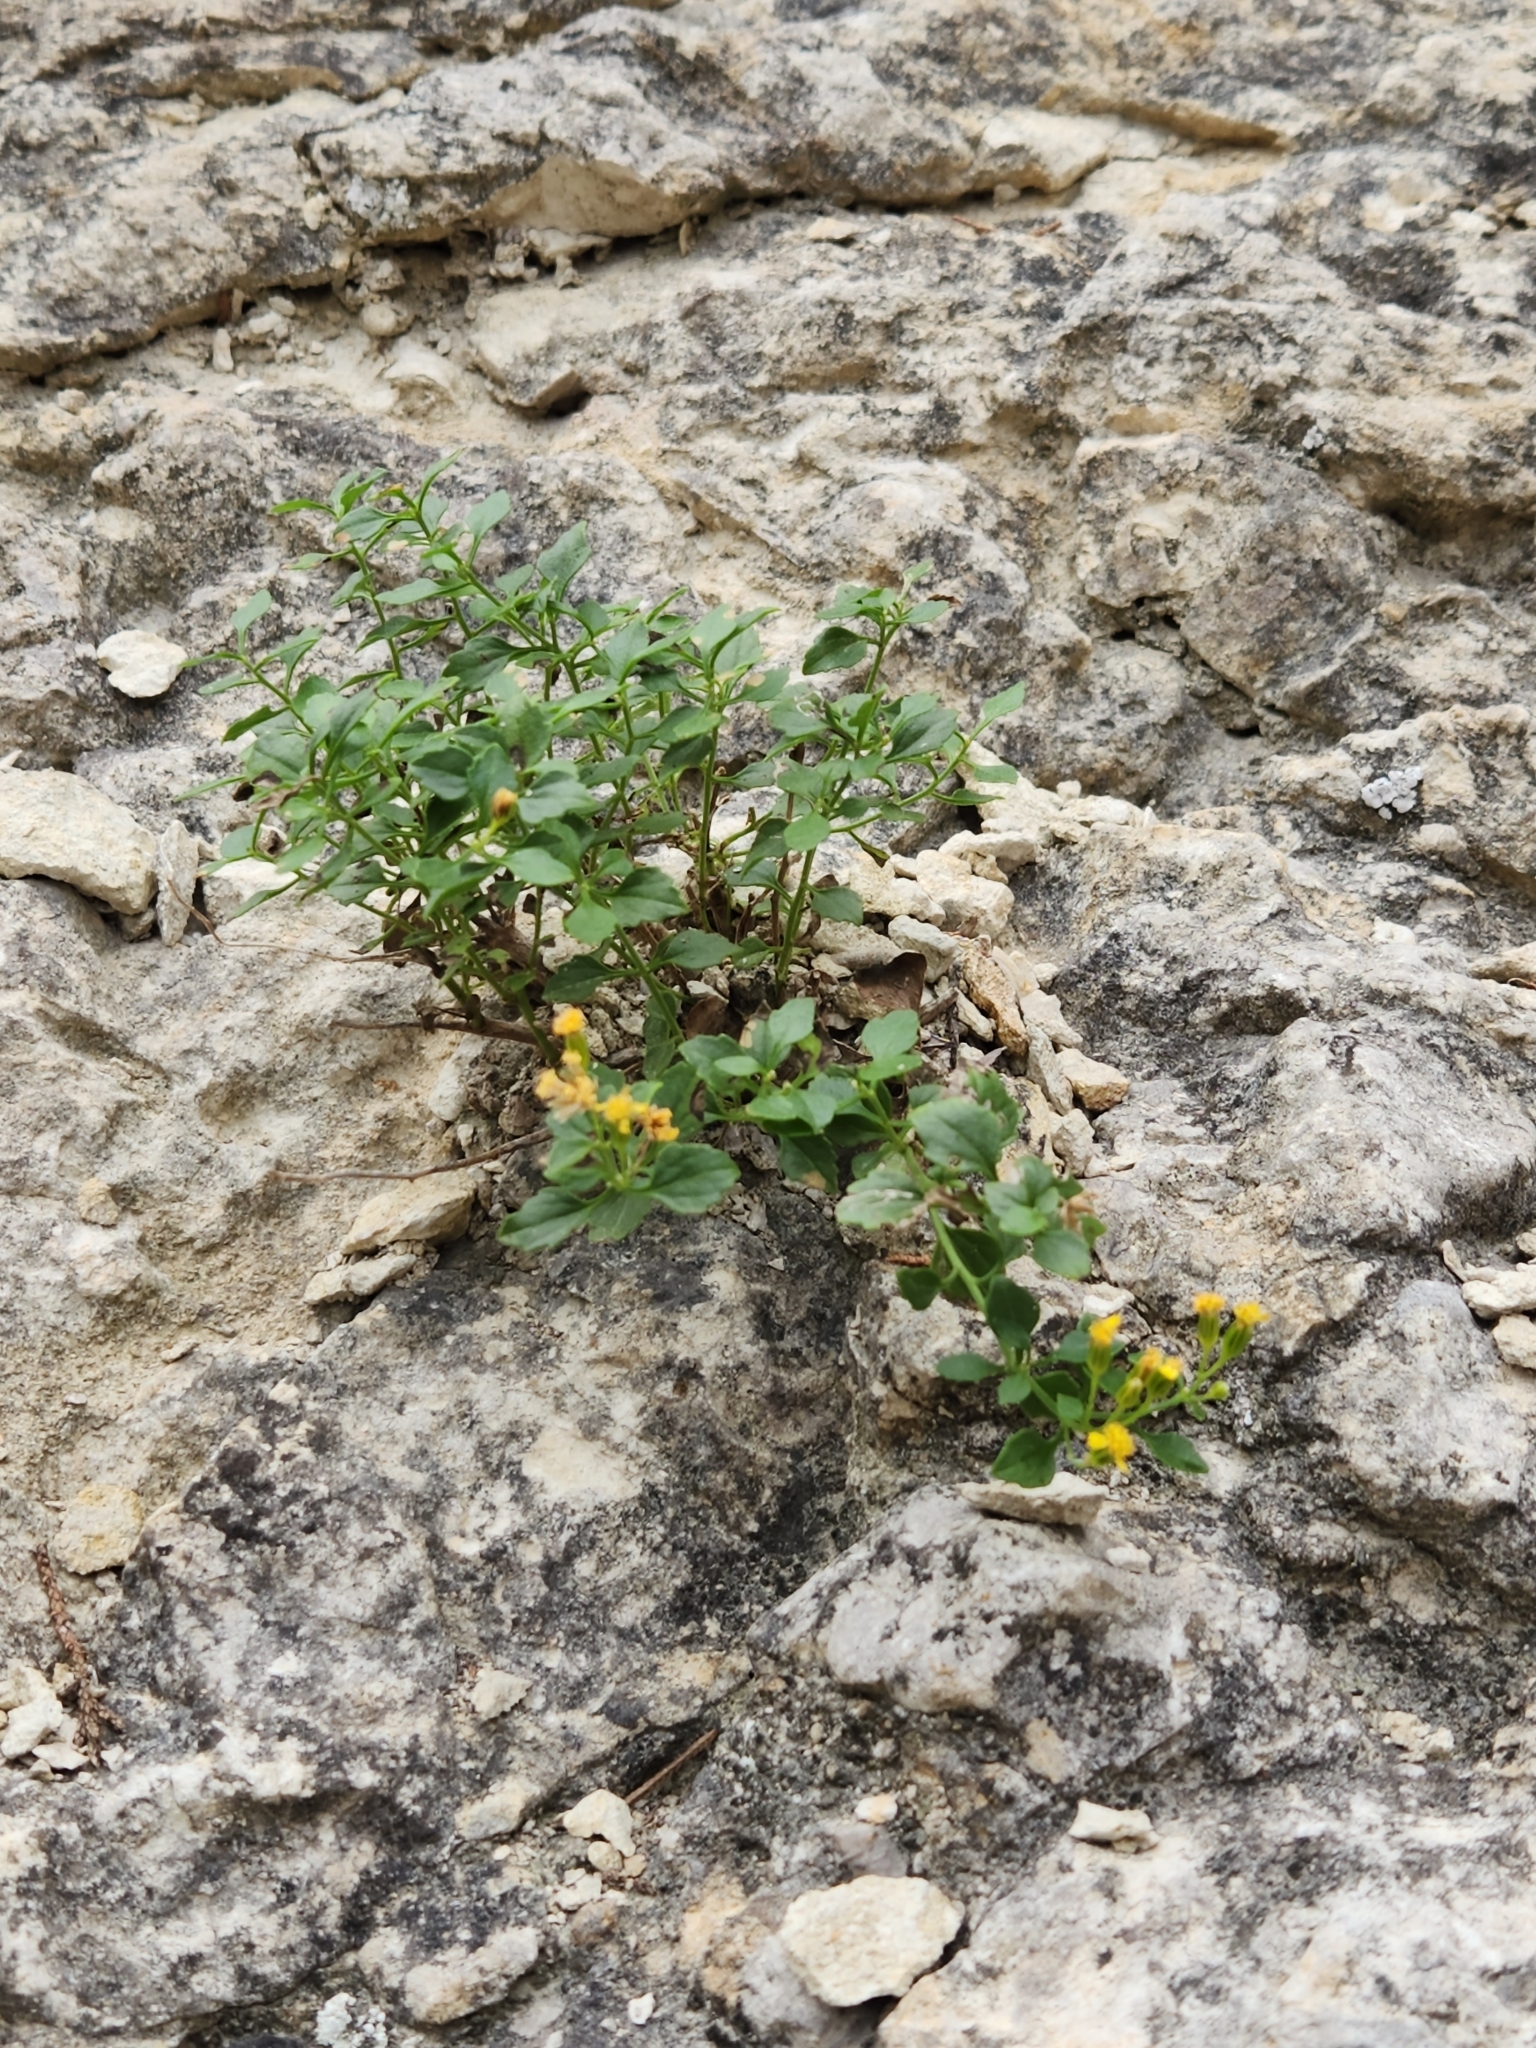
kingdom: Plantae
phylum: Tracheophyta
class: Magnoliopsida
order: Asterales
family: Asteraceae
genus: Laphamia
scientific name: Laphamia lindheimeri
